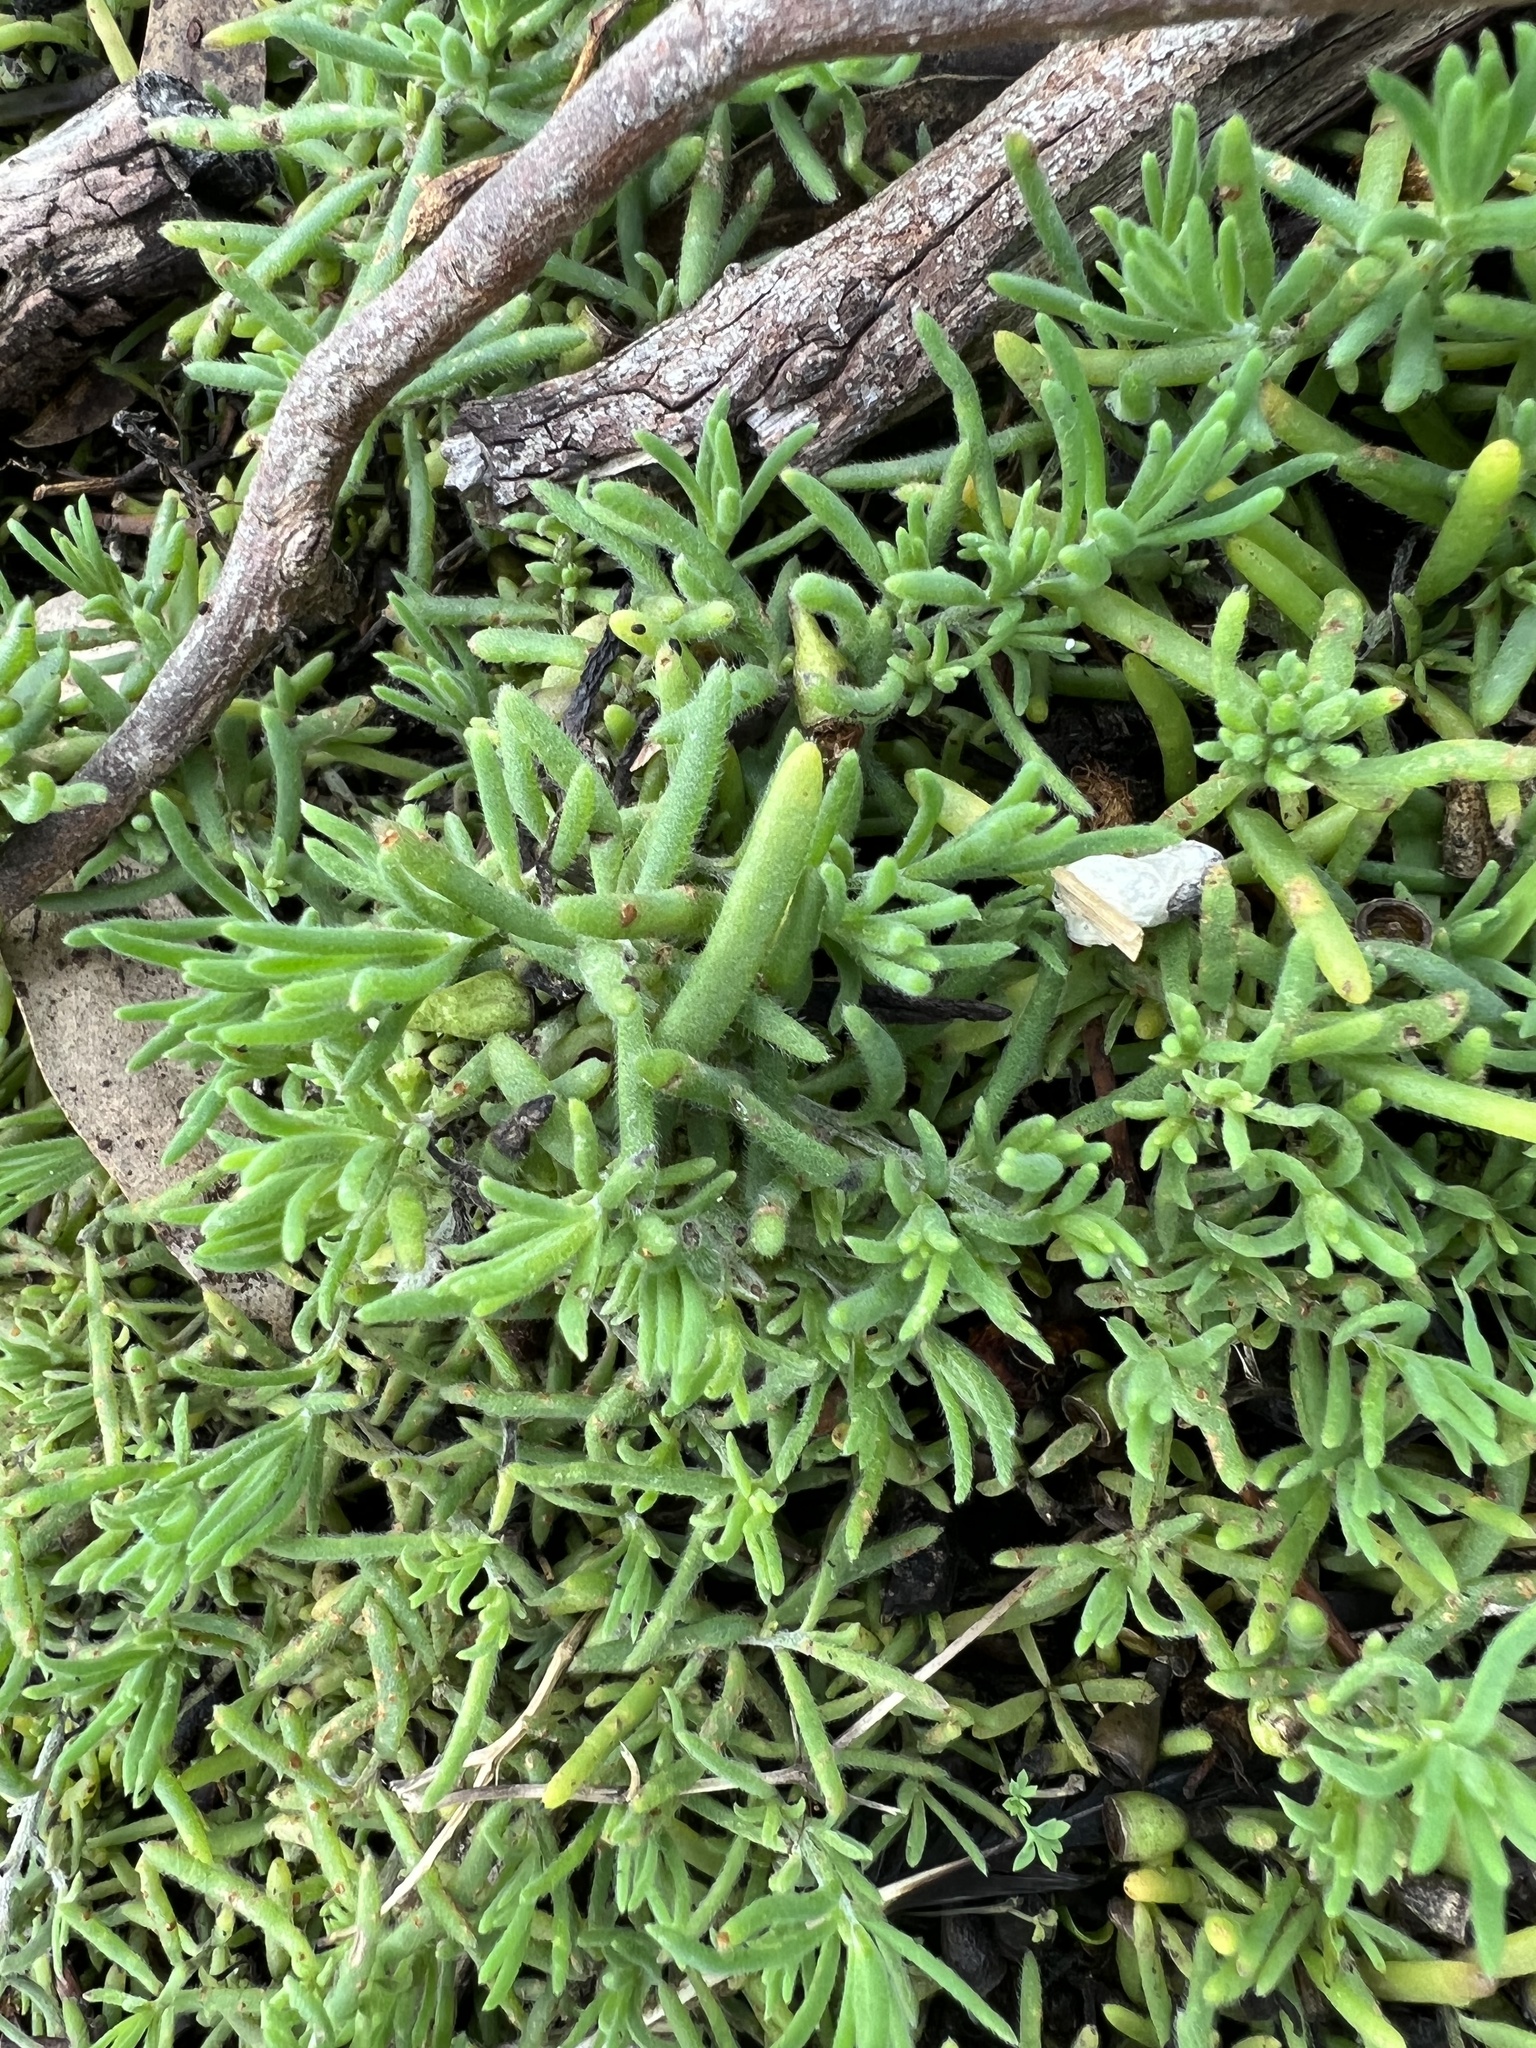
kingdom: Plantae
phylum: Tracheophyta
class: Magnoliopsida
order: Caryophyllales
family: Amaranthaceae
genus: Enchylaena
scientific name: Enchylaena tomentosa
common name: Ruby saltbush
